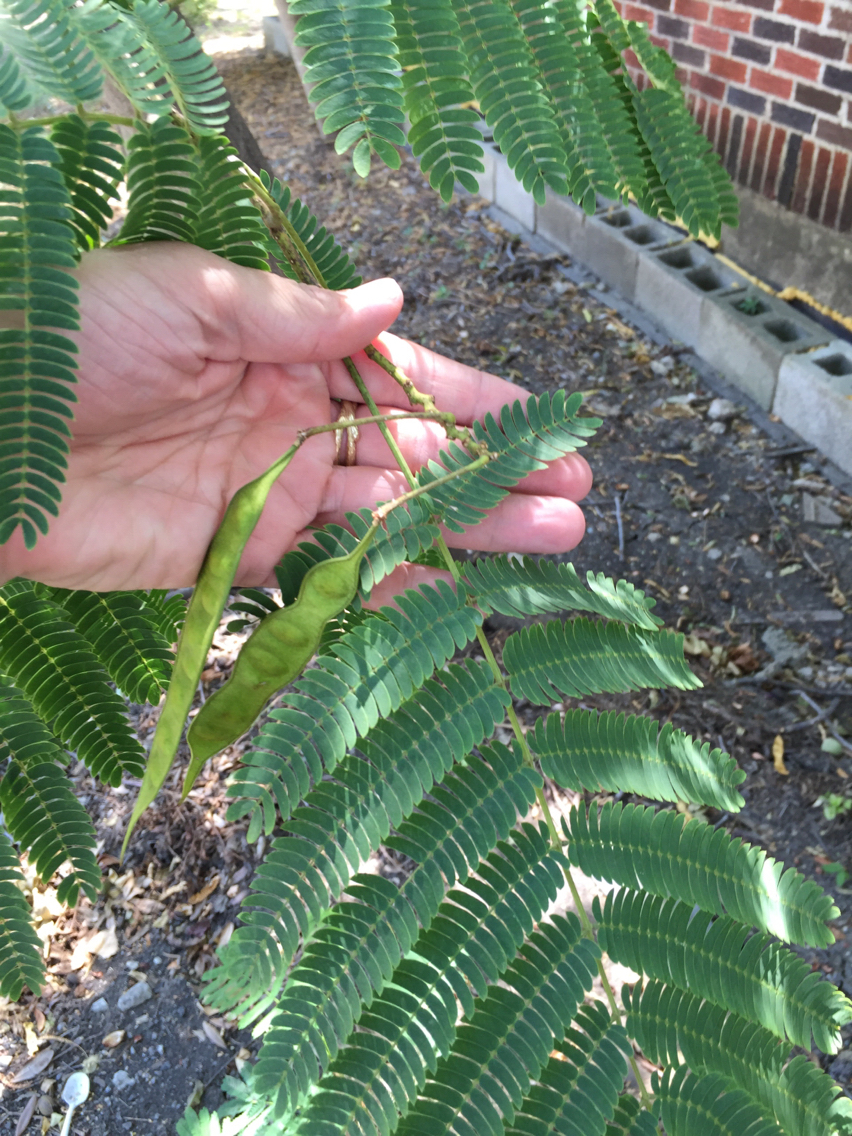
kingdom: Plantae
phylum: Tracheophyta
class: Magnoliopsida
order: Fabales
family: Fabaceae
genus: Albizia
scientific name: Albizia julibrissin
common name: Silktree
